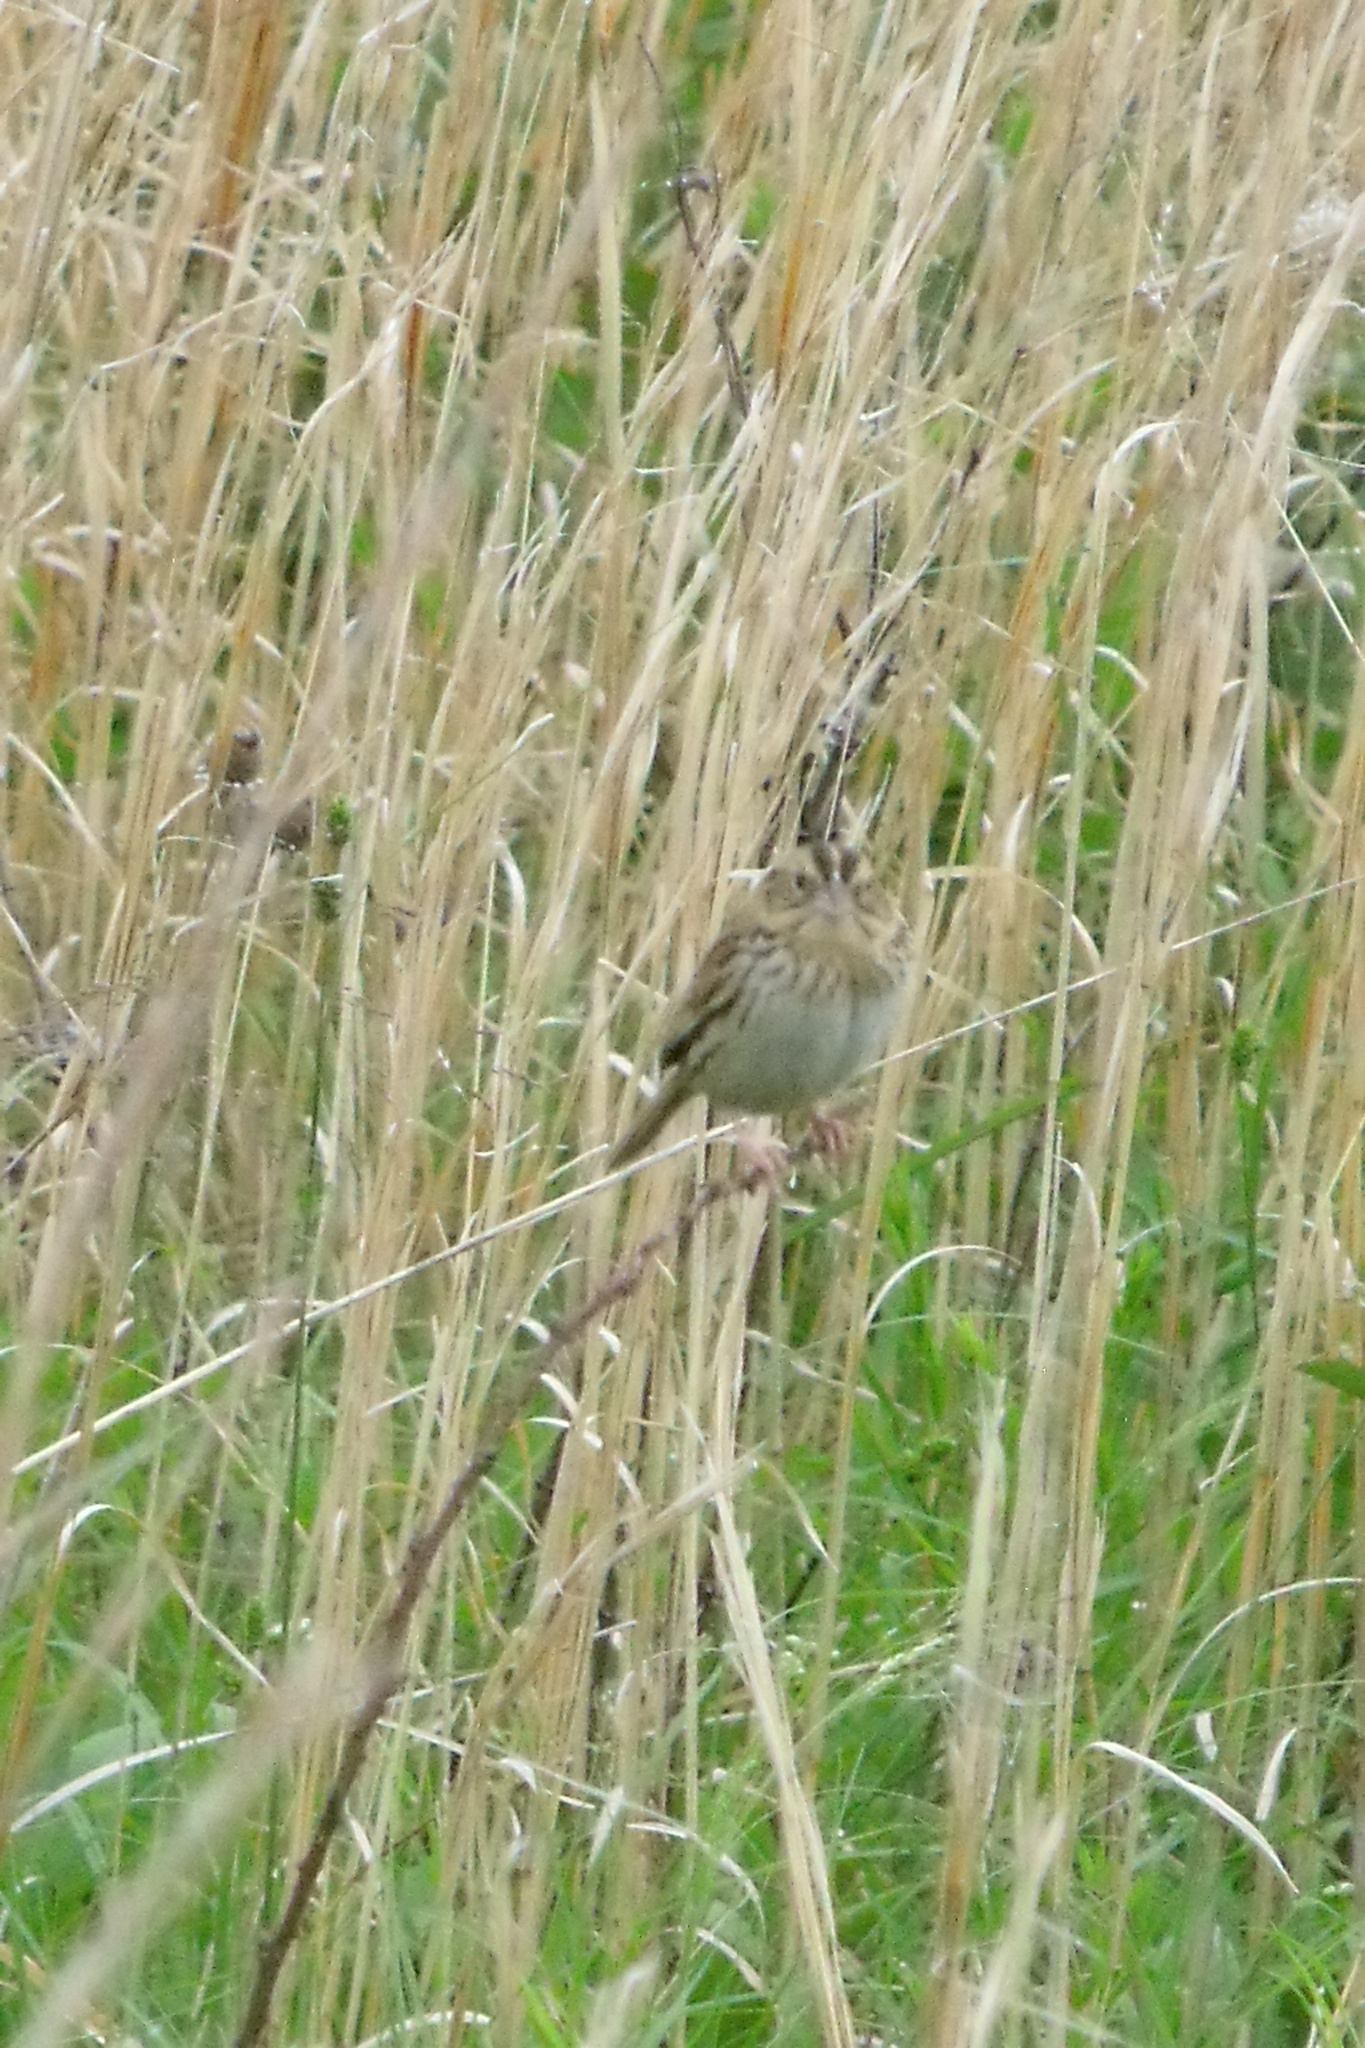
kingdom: Animalia
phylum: Chordata
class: Aves
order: Passeriformes
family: Passerellidae
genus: Centronyx
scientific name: Centronyx henslowii
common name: Henslow's sparrow
